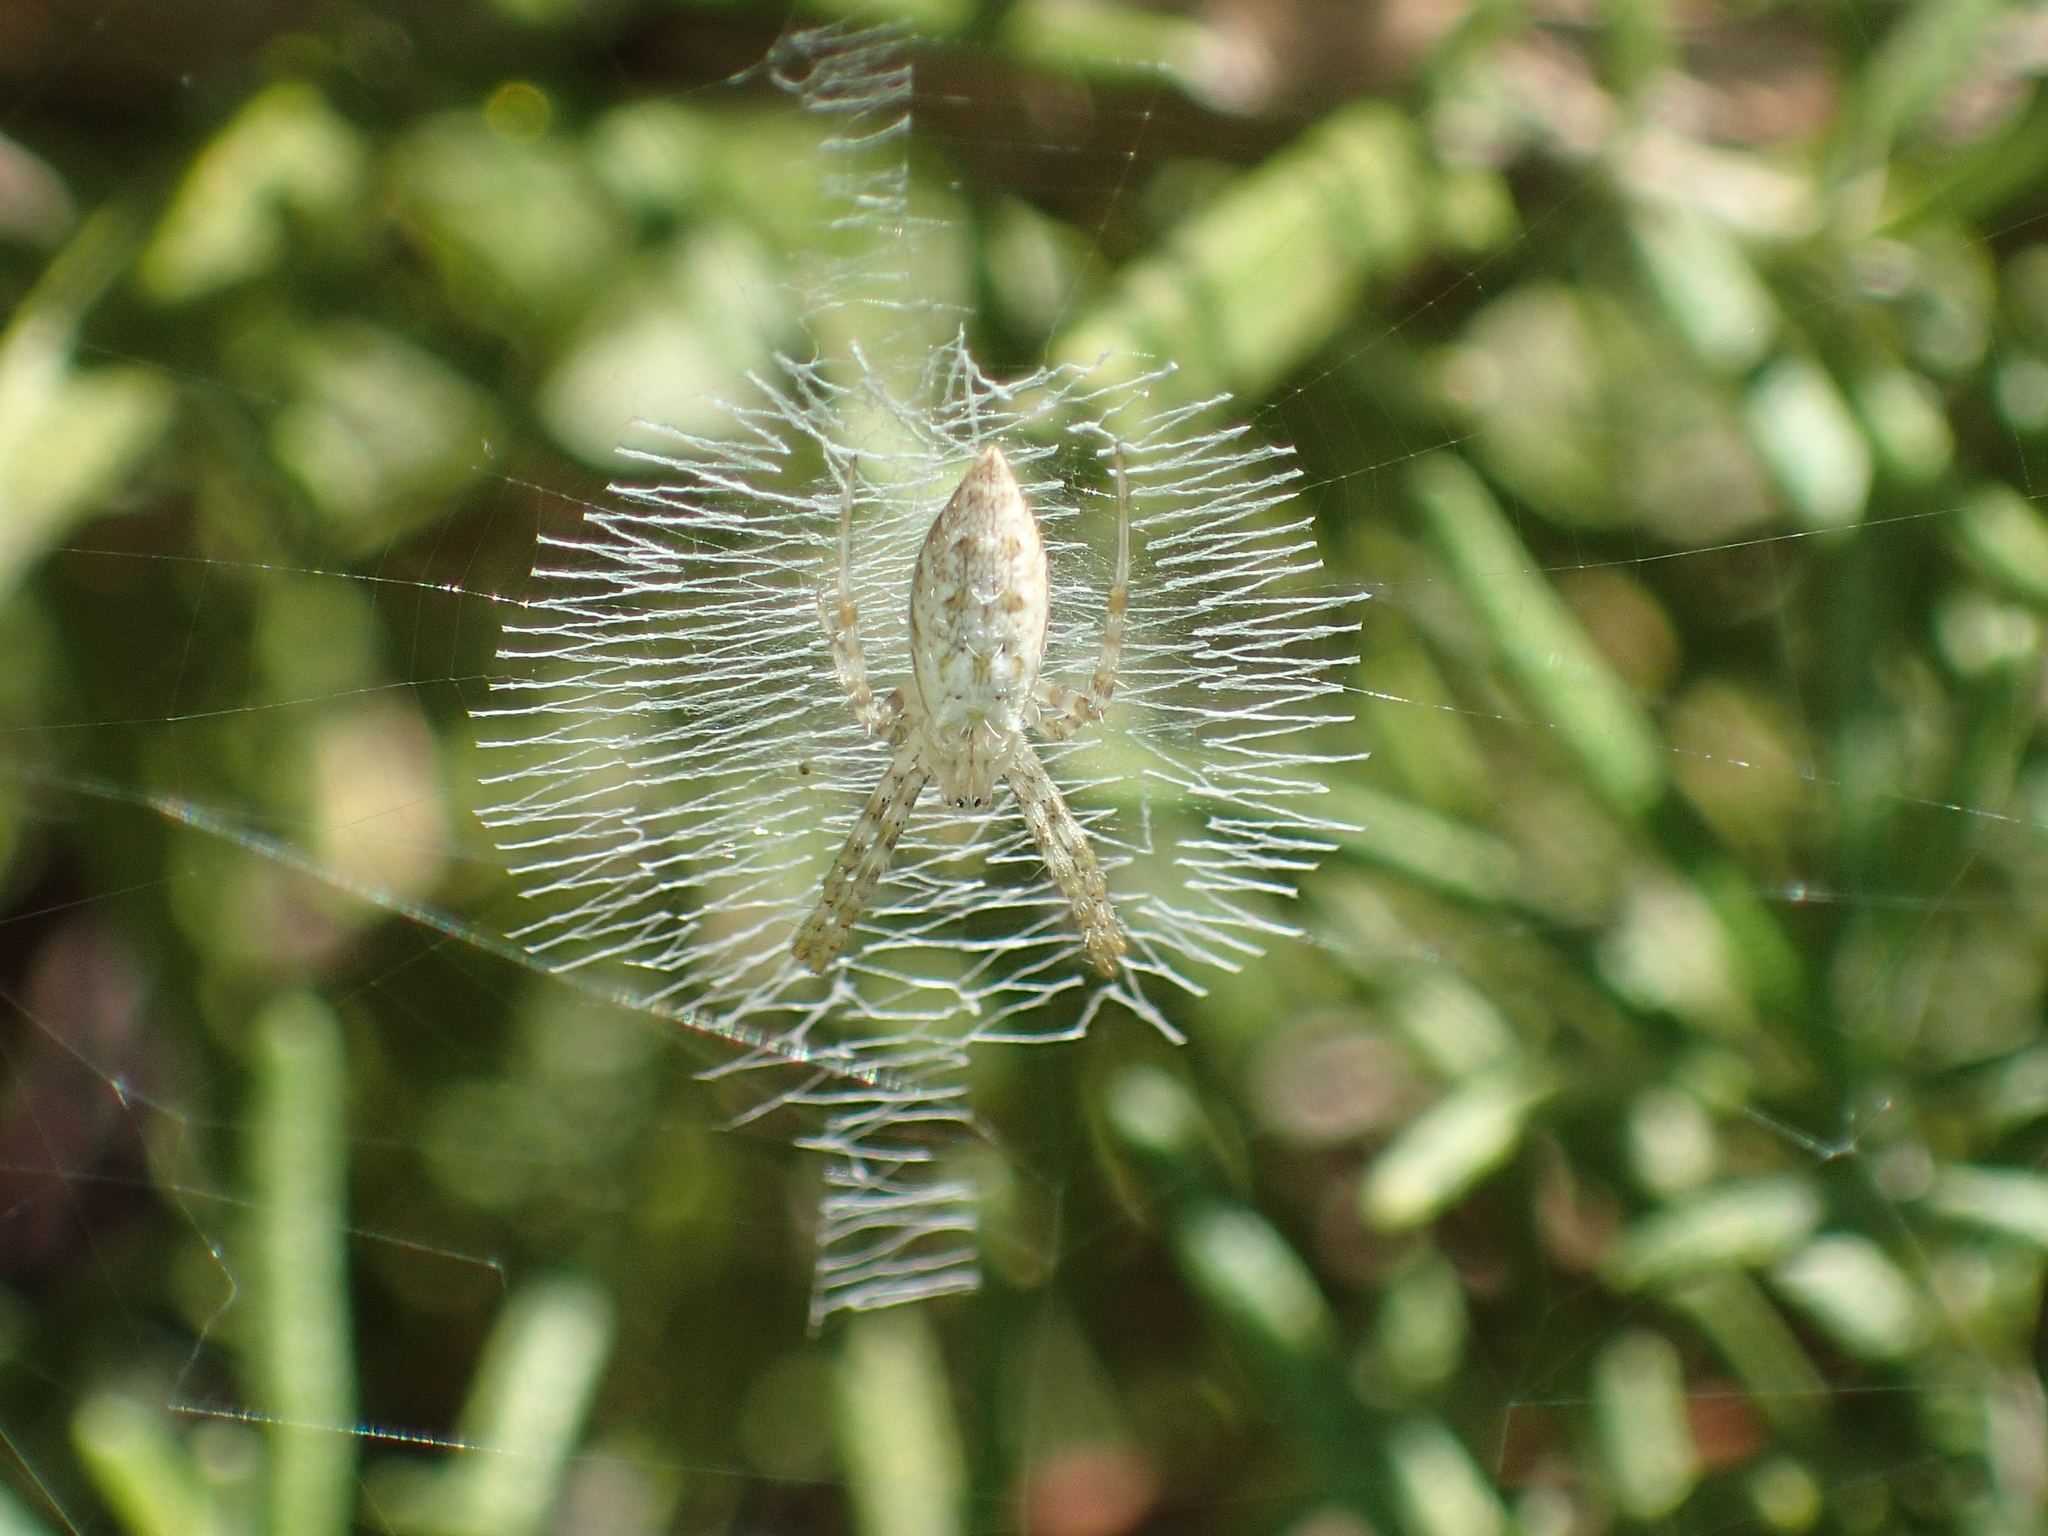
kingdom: Animalia
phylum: Arthropoda
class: Arachnida
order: Araneae
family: Araneidae
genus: Argiope
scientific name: Argiope aurantia
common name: Orb weavers
